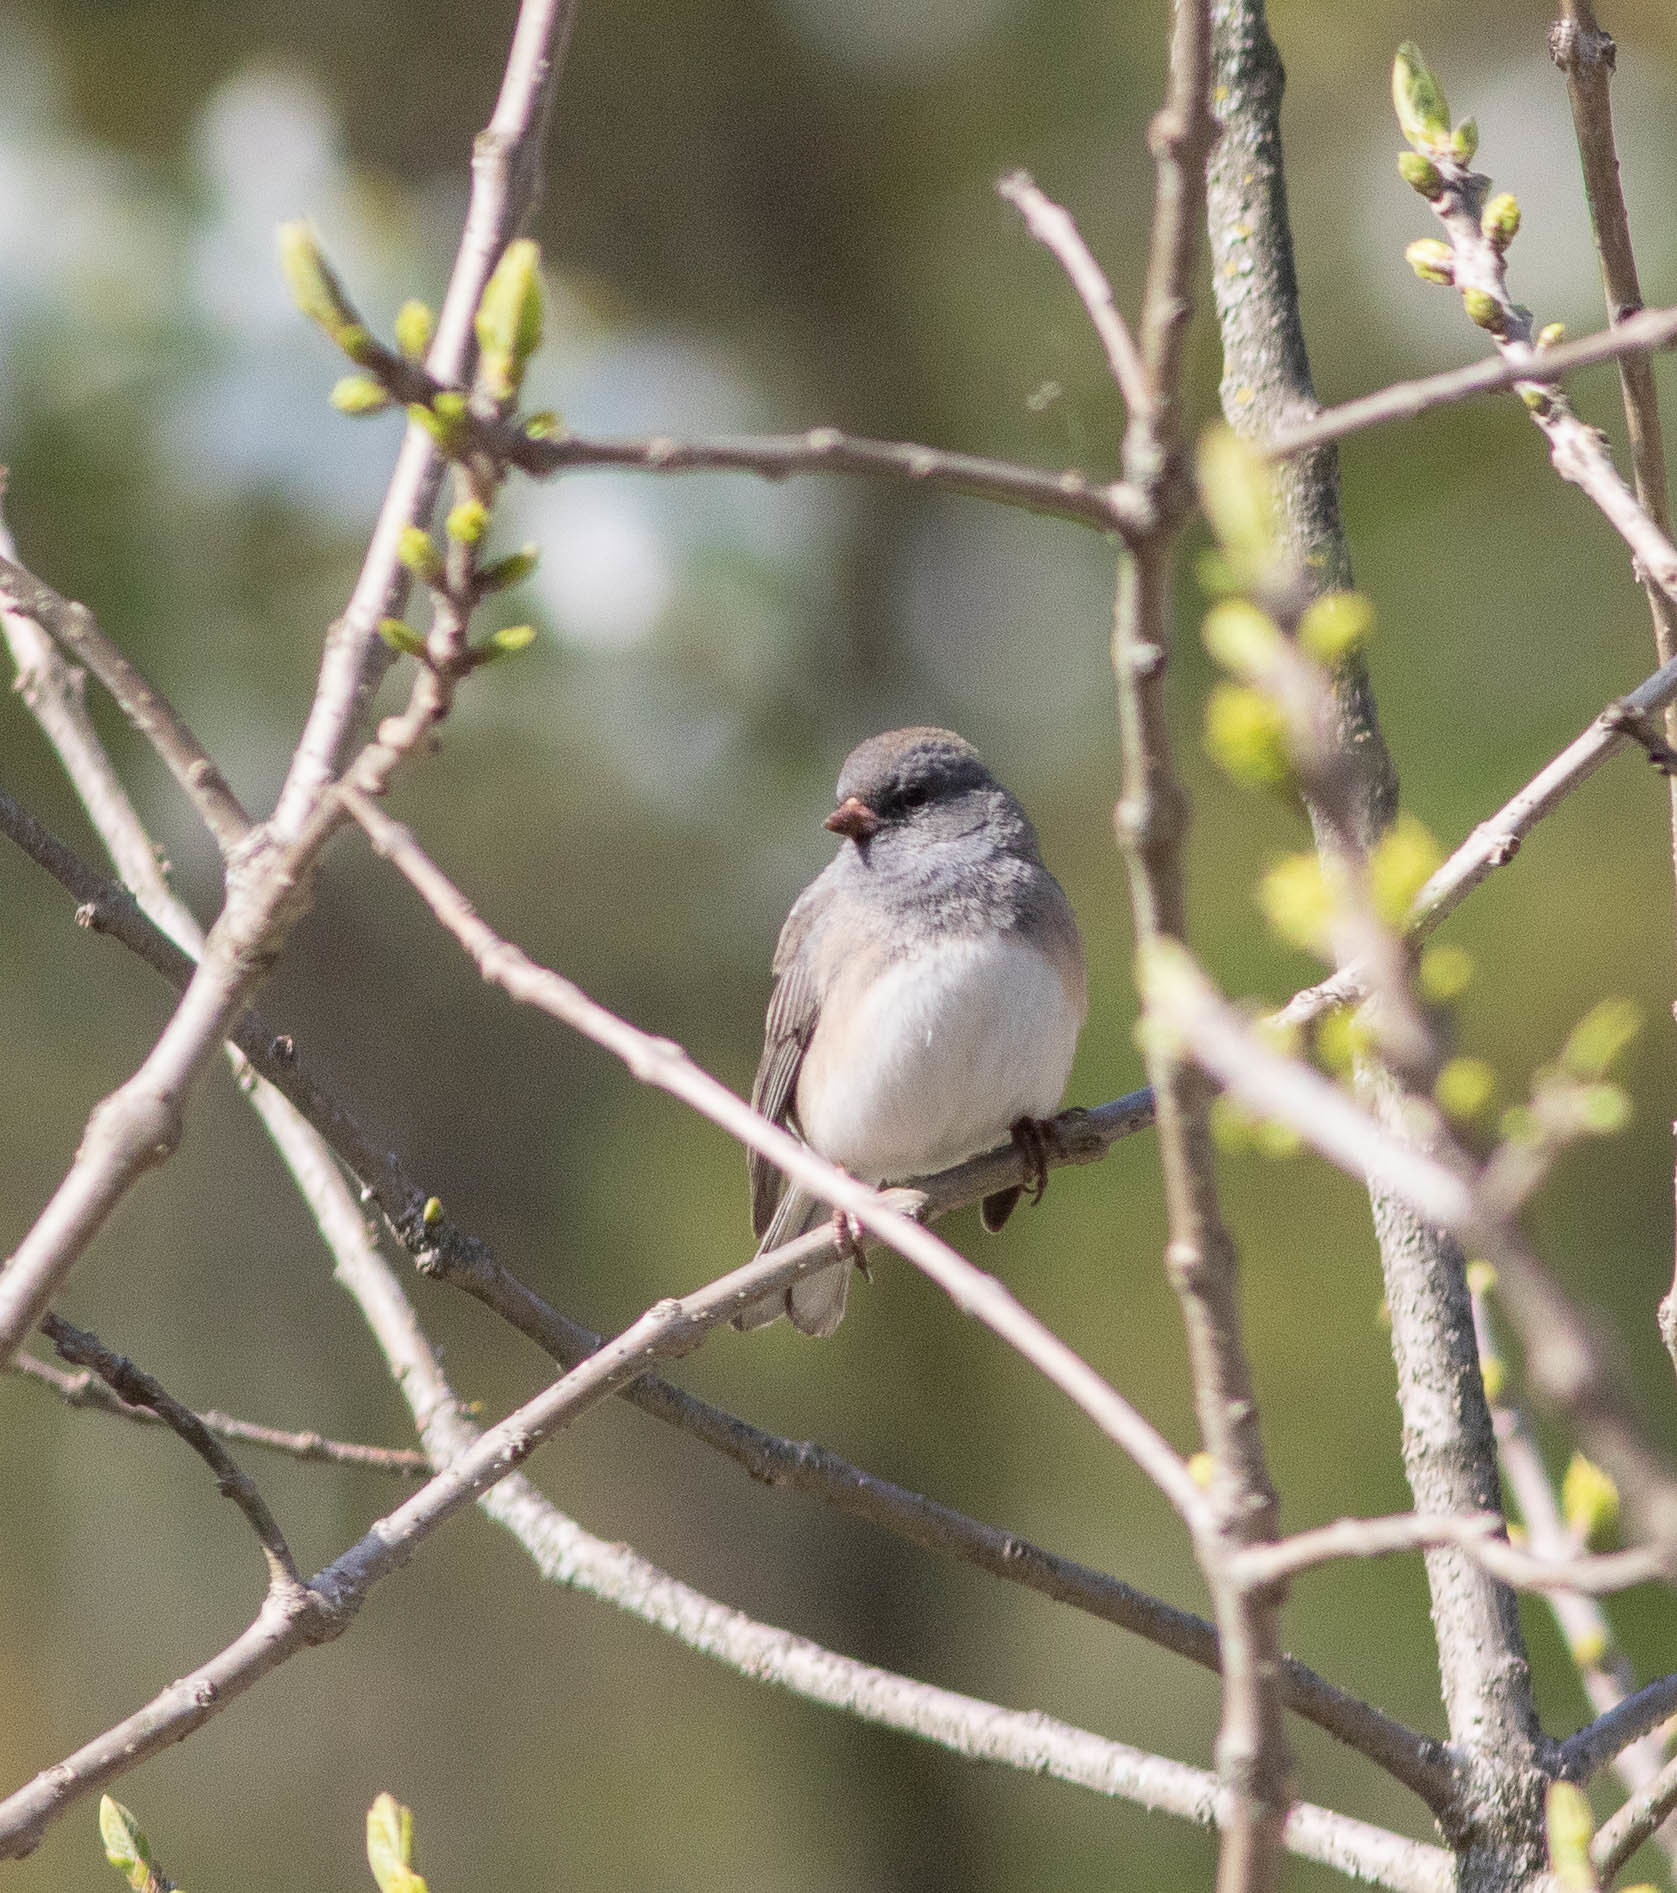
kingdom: Animalia
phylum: Chordata
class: Aves
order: Passeriformes
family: Passerellidae
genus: Junco
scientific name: Junco hyemalis
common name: Dark-eyed junco
